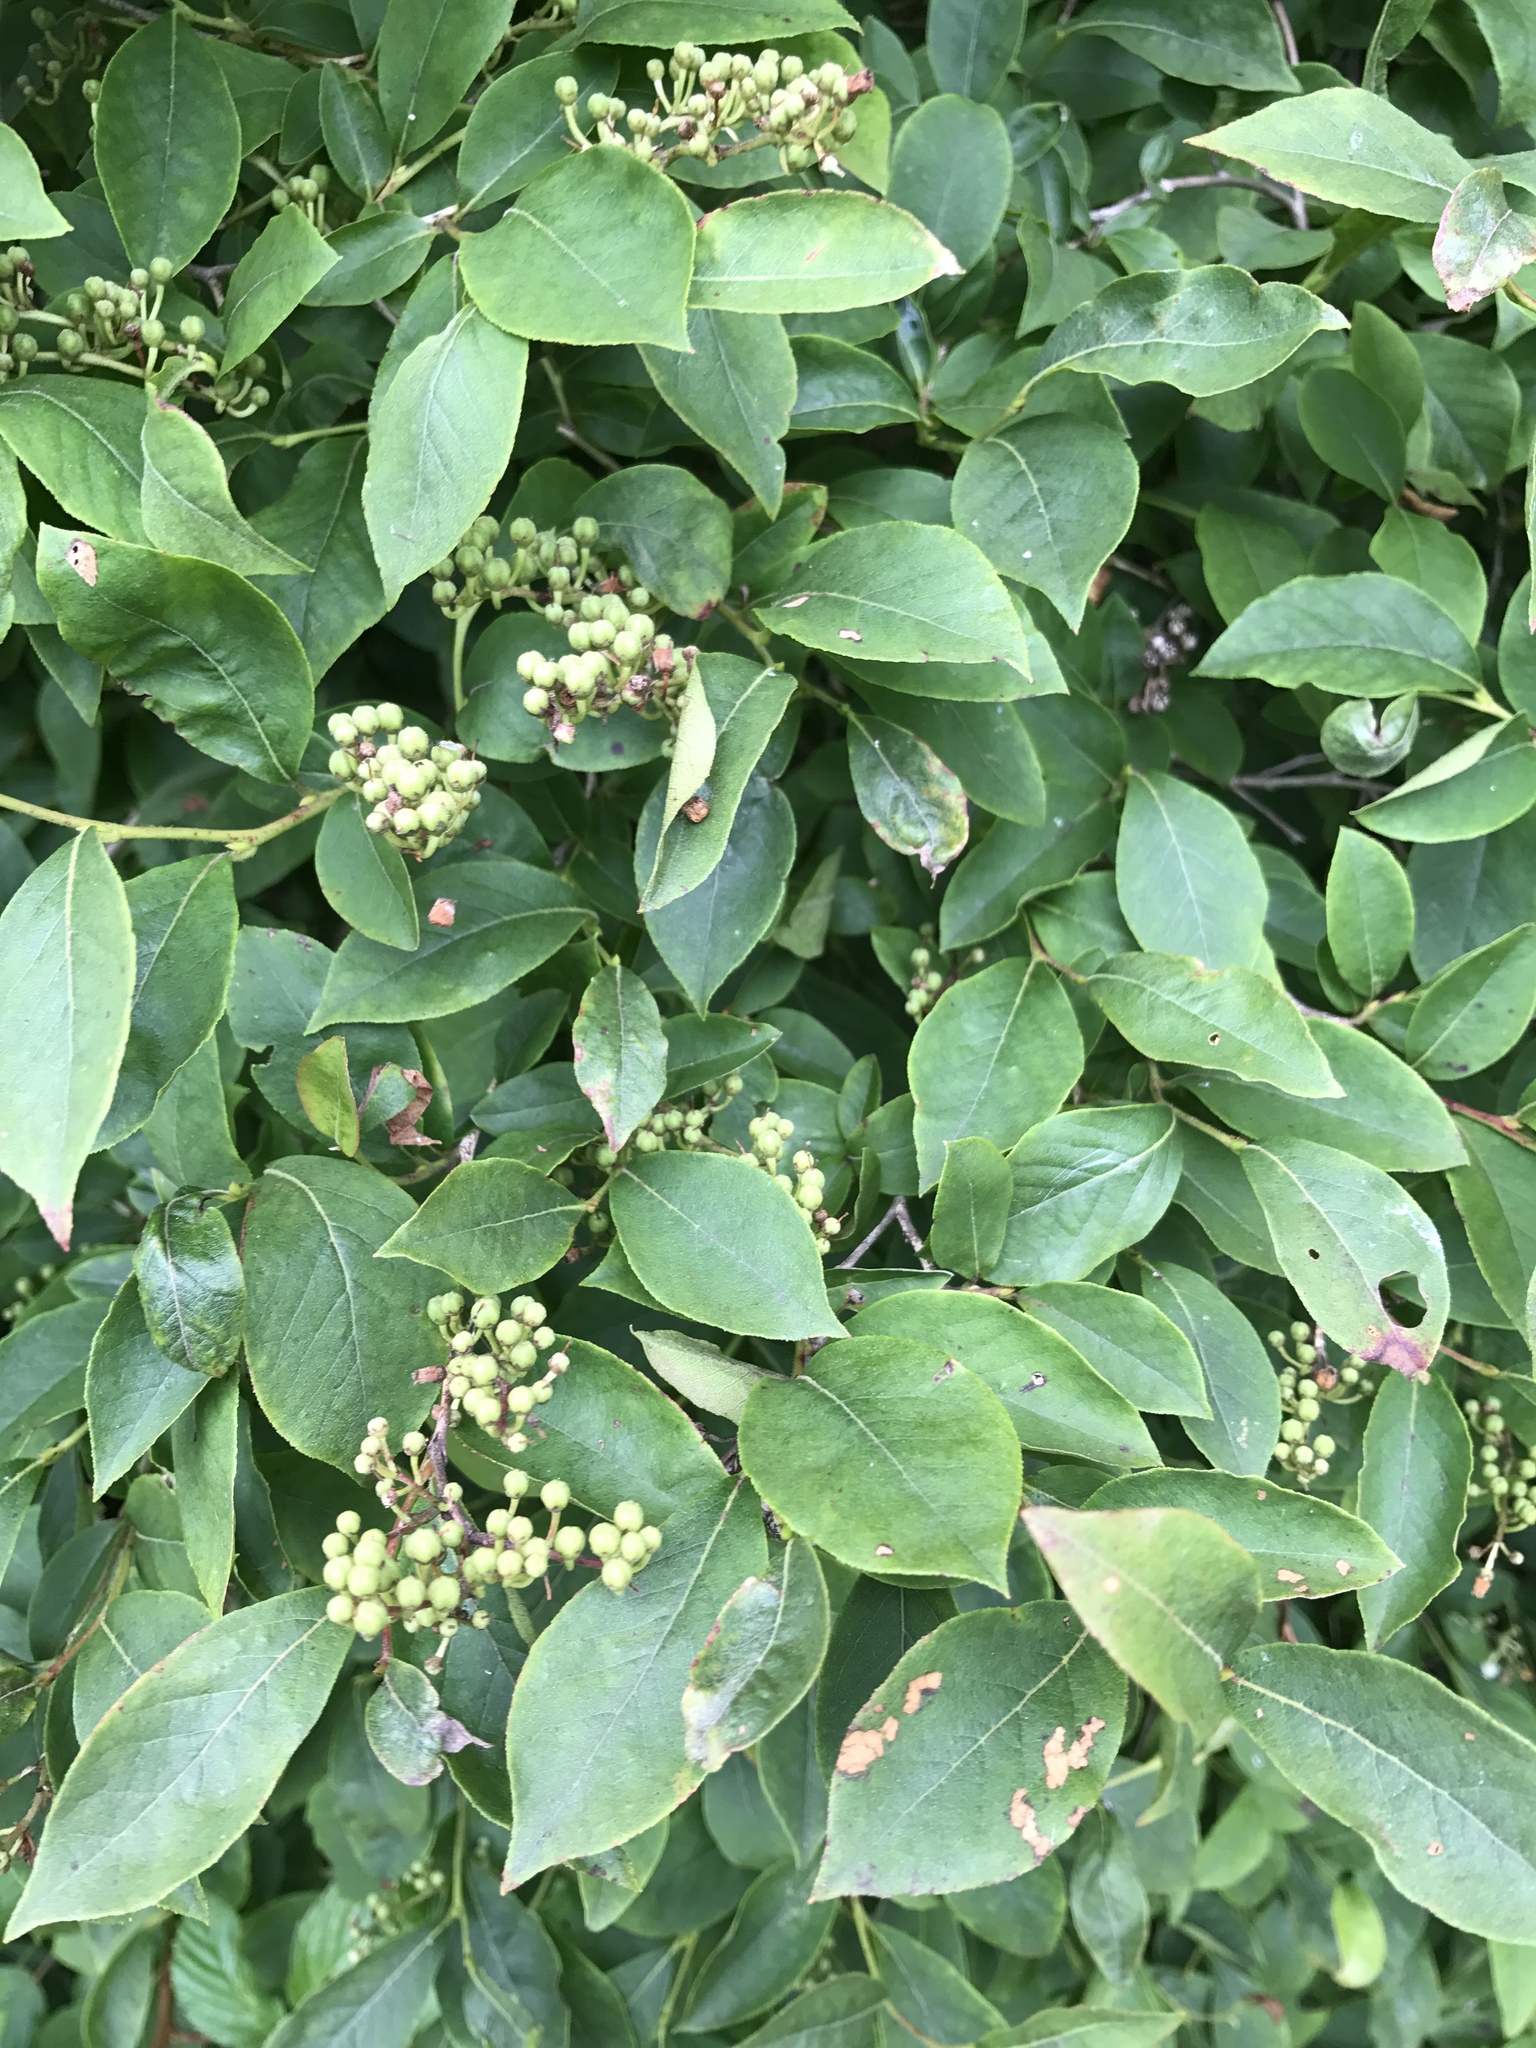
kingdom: Plantae
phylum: Tracheophyta
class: Magnoliopsida
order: Ericales
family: Ericaceae
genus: Lyonia
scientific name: Lyonia ligustrina
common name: Maleberry
